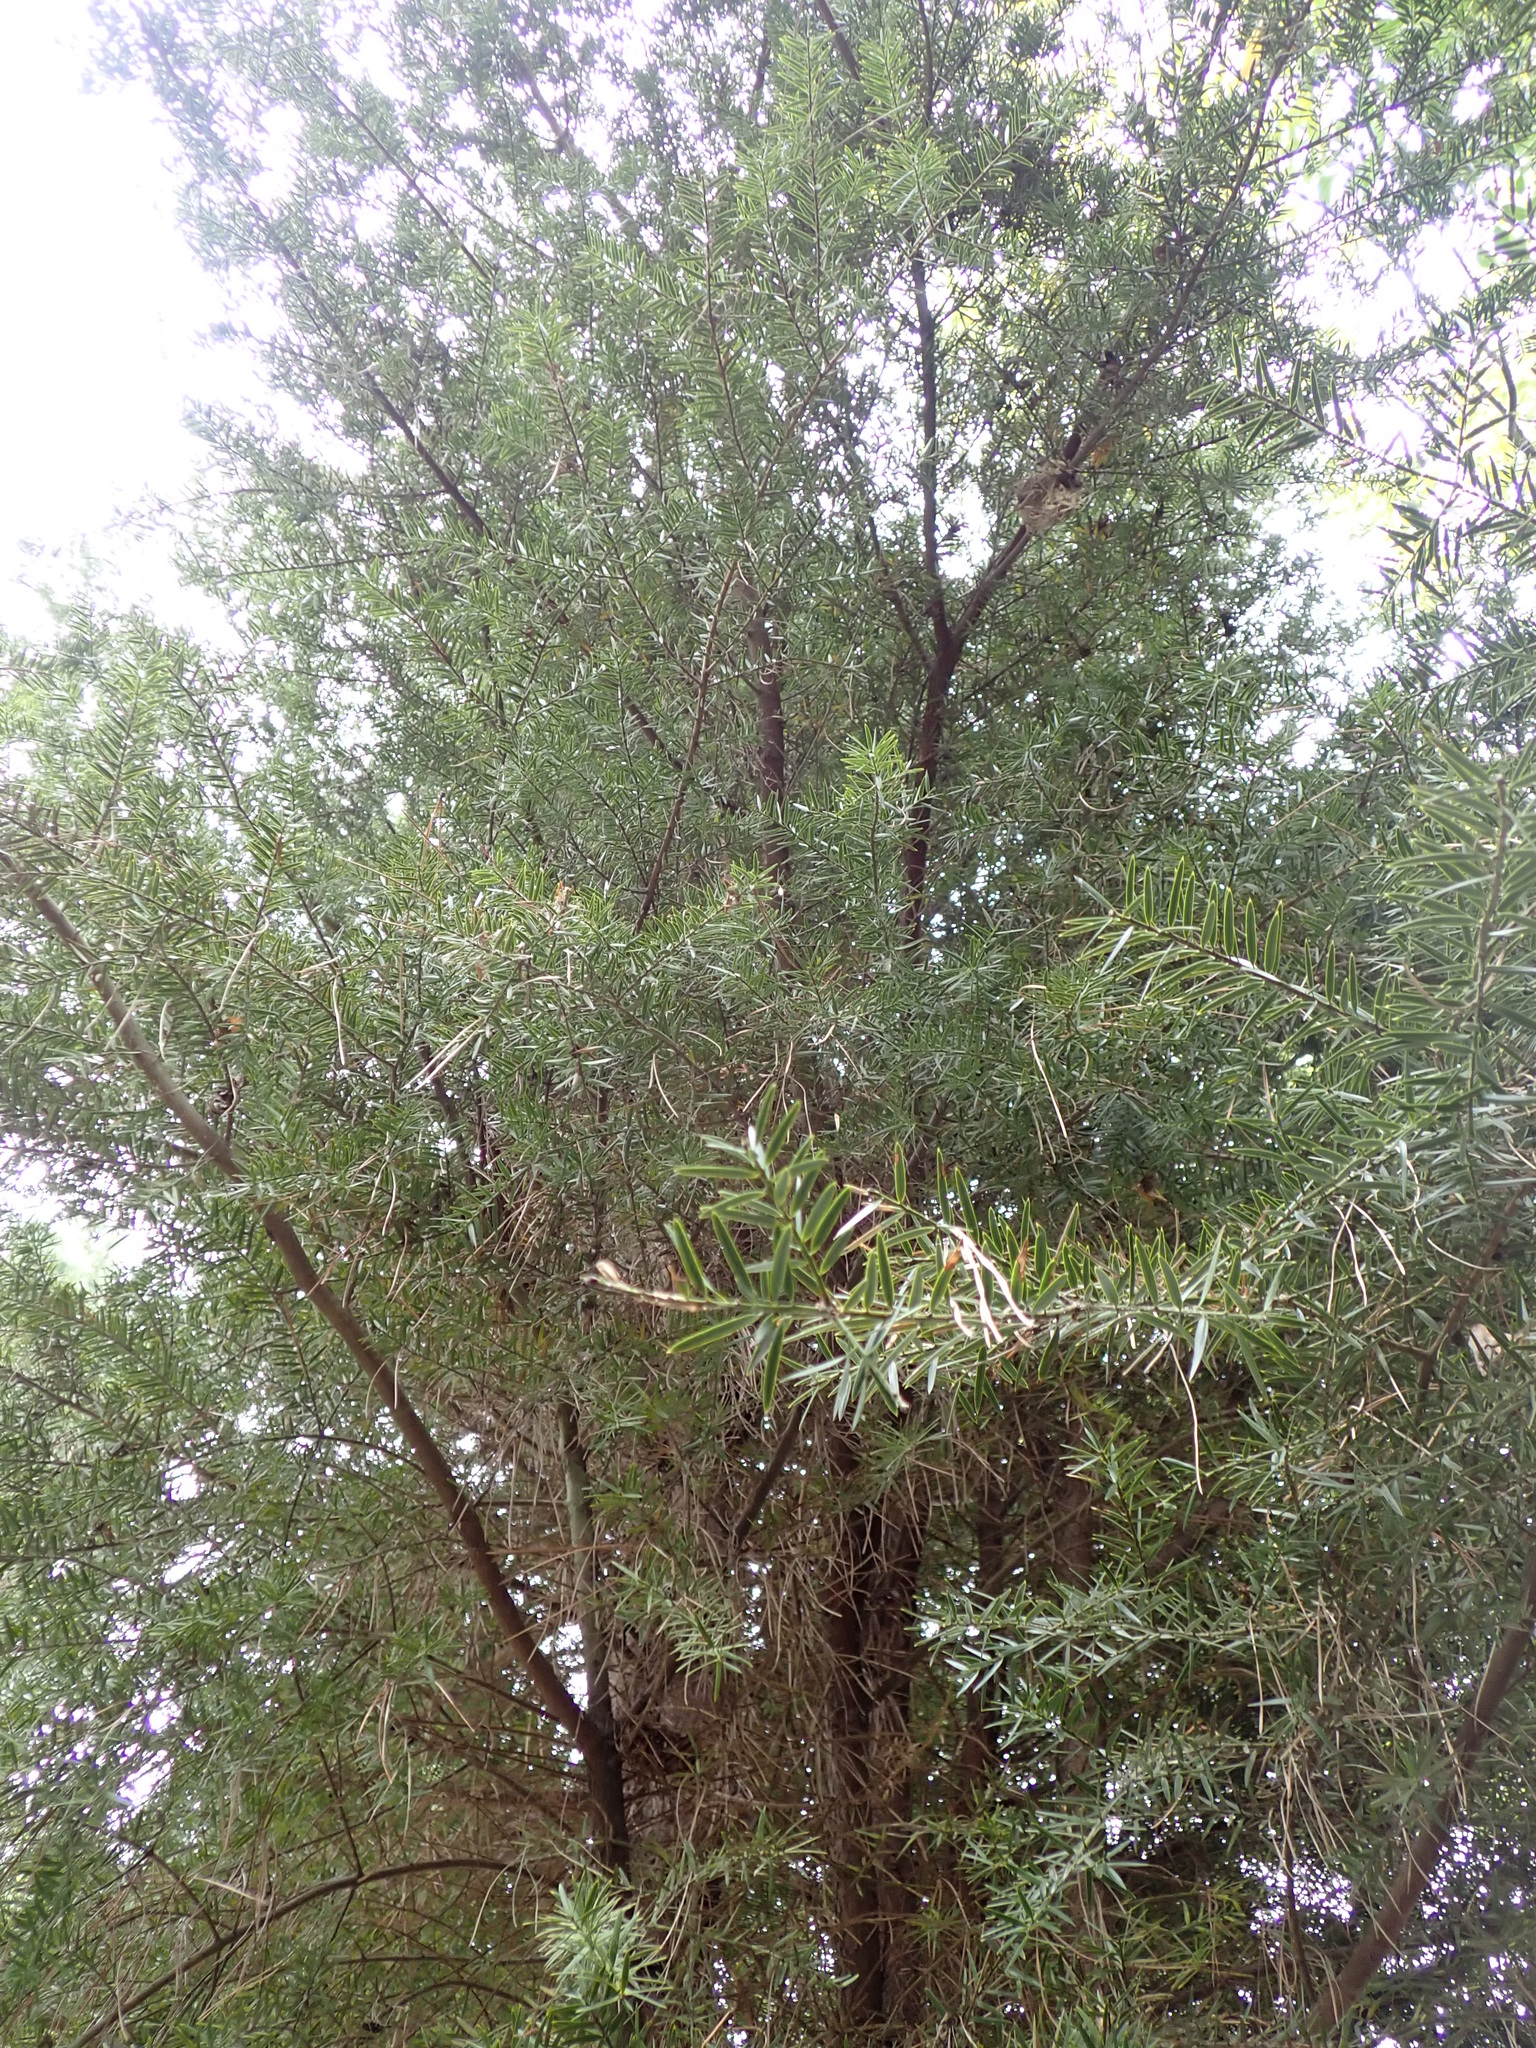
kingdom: Plantae
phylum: Tracheophyta
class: Pinopsida
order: Pinales
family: Podocarpaceae
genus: Podocarpus
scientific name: Podocarpus totara
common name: Totara
